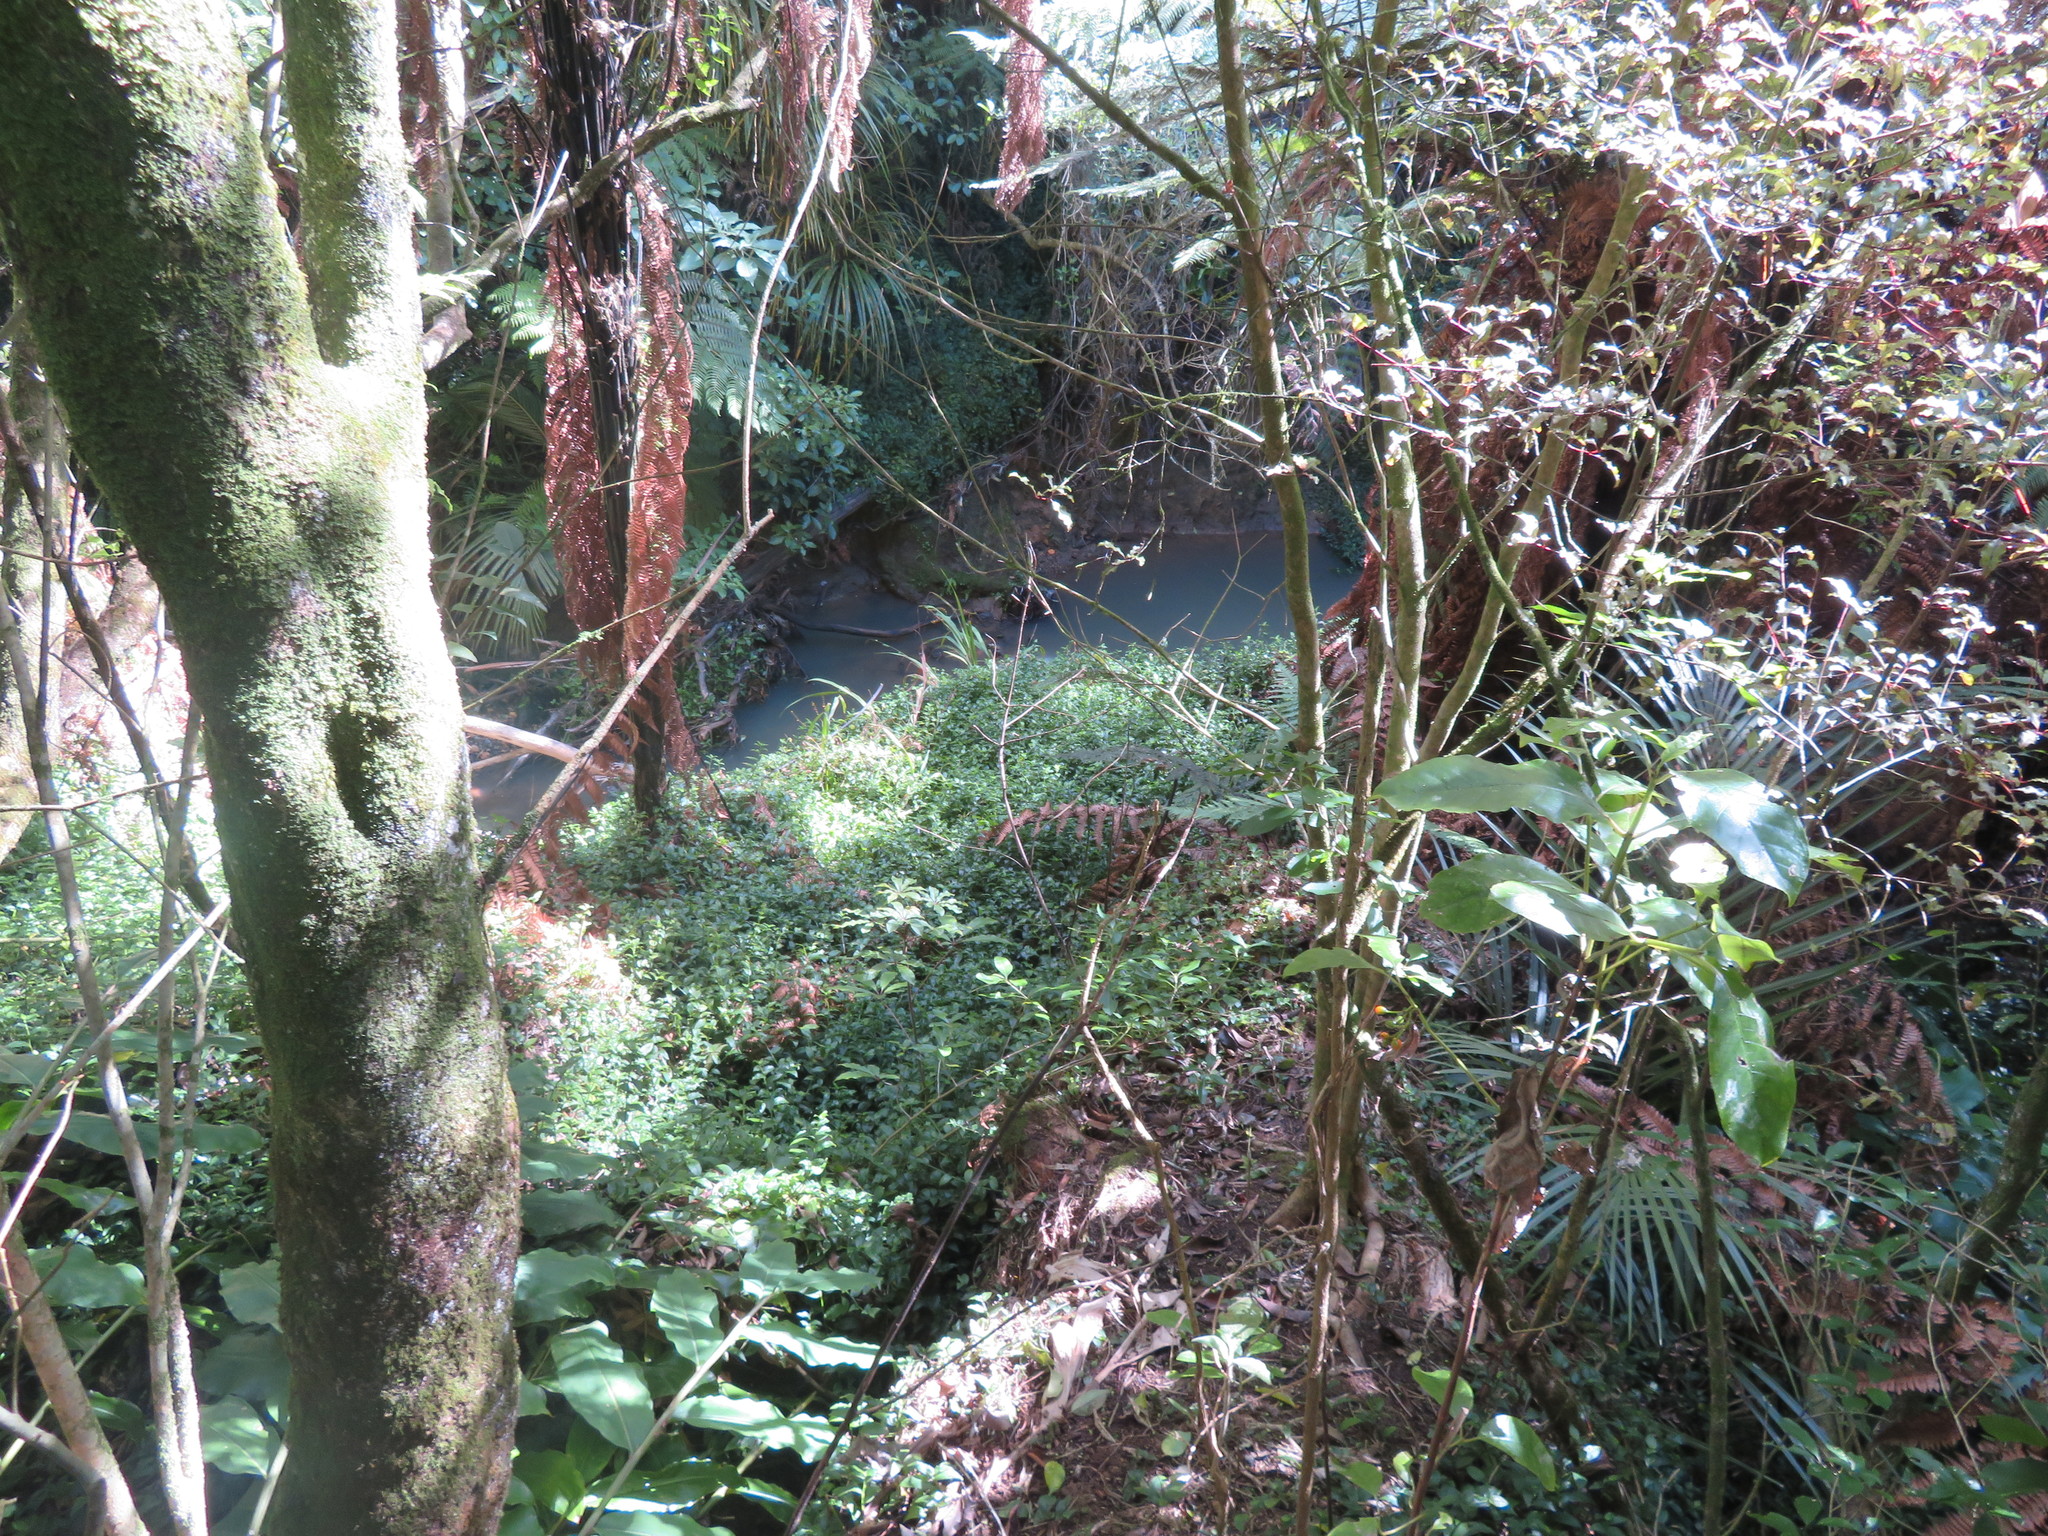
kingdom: Plantae
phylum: Tracheophyta
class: Magnoliopsida
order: Ericales
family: Primulaceae
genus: Myrsine
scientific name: Myrsine australis
